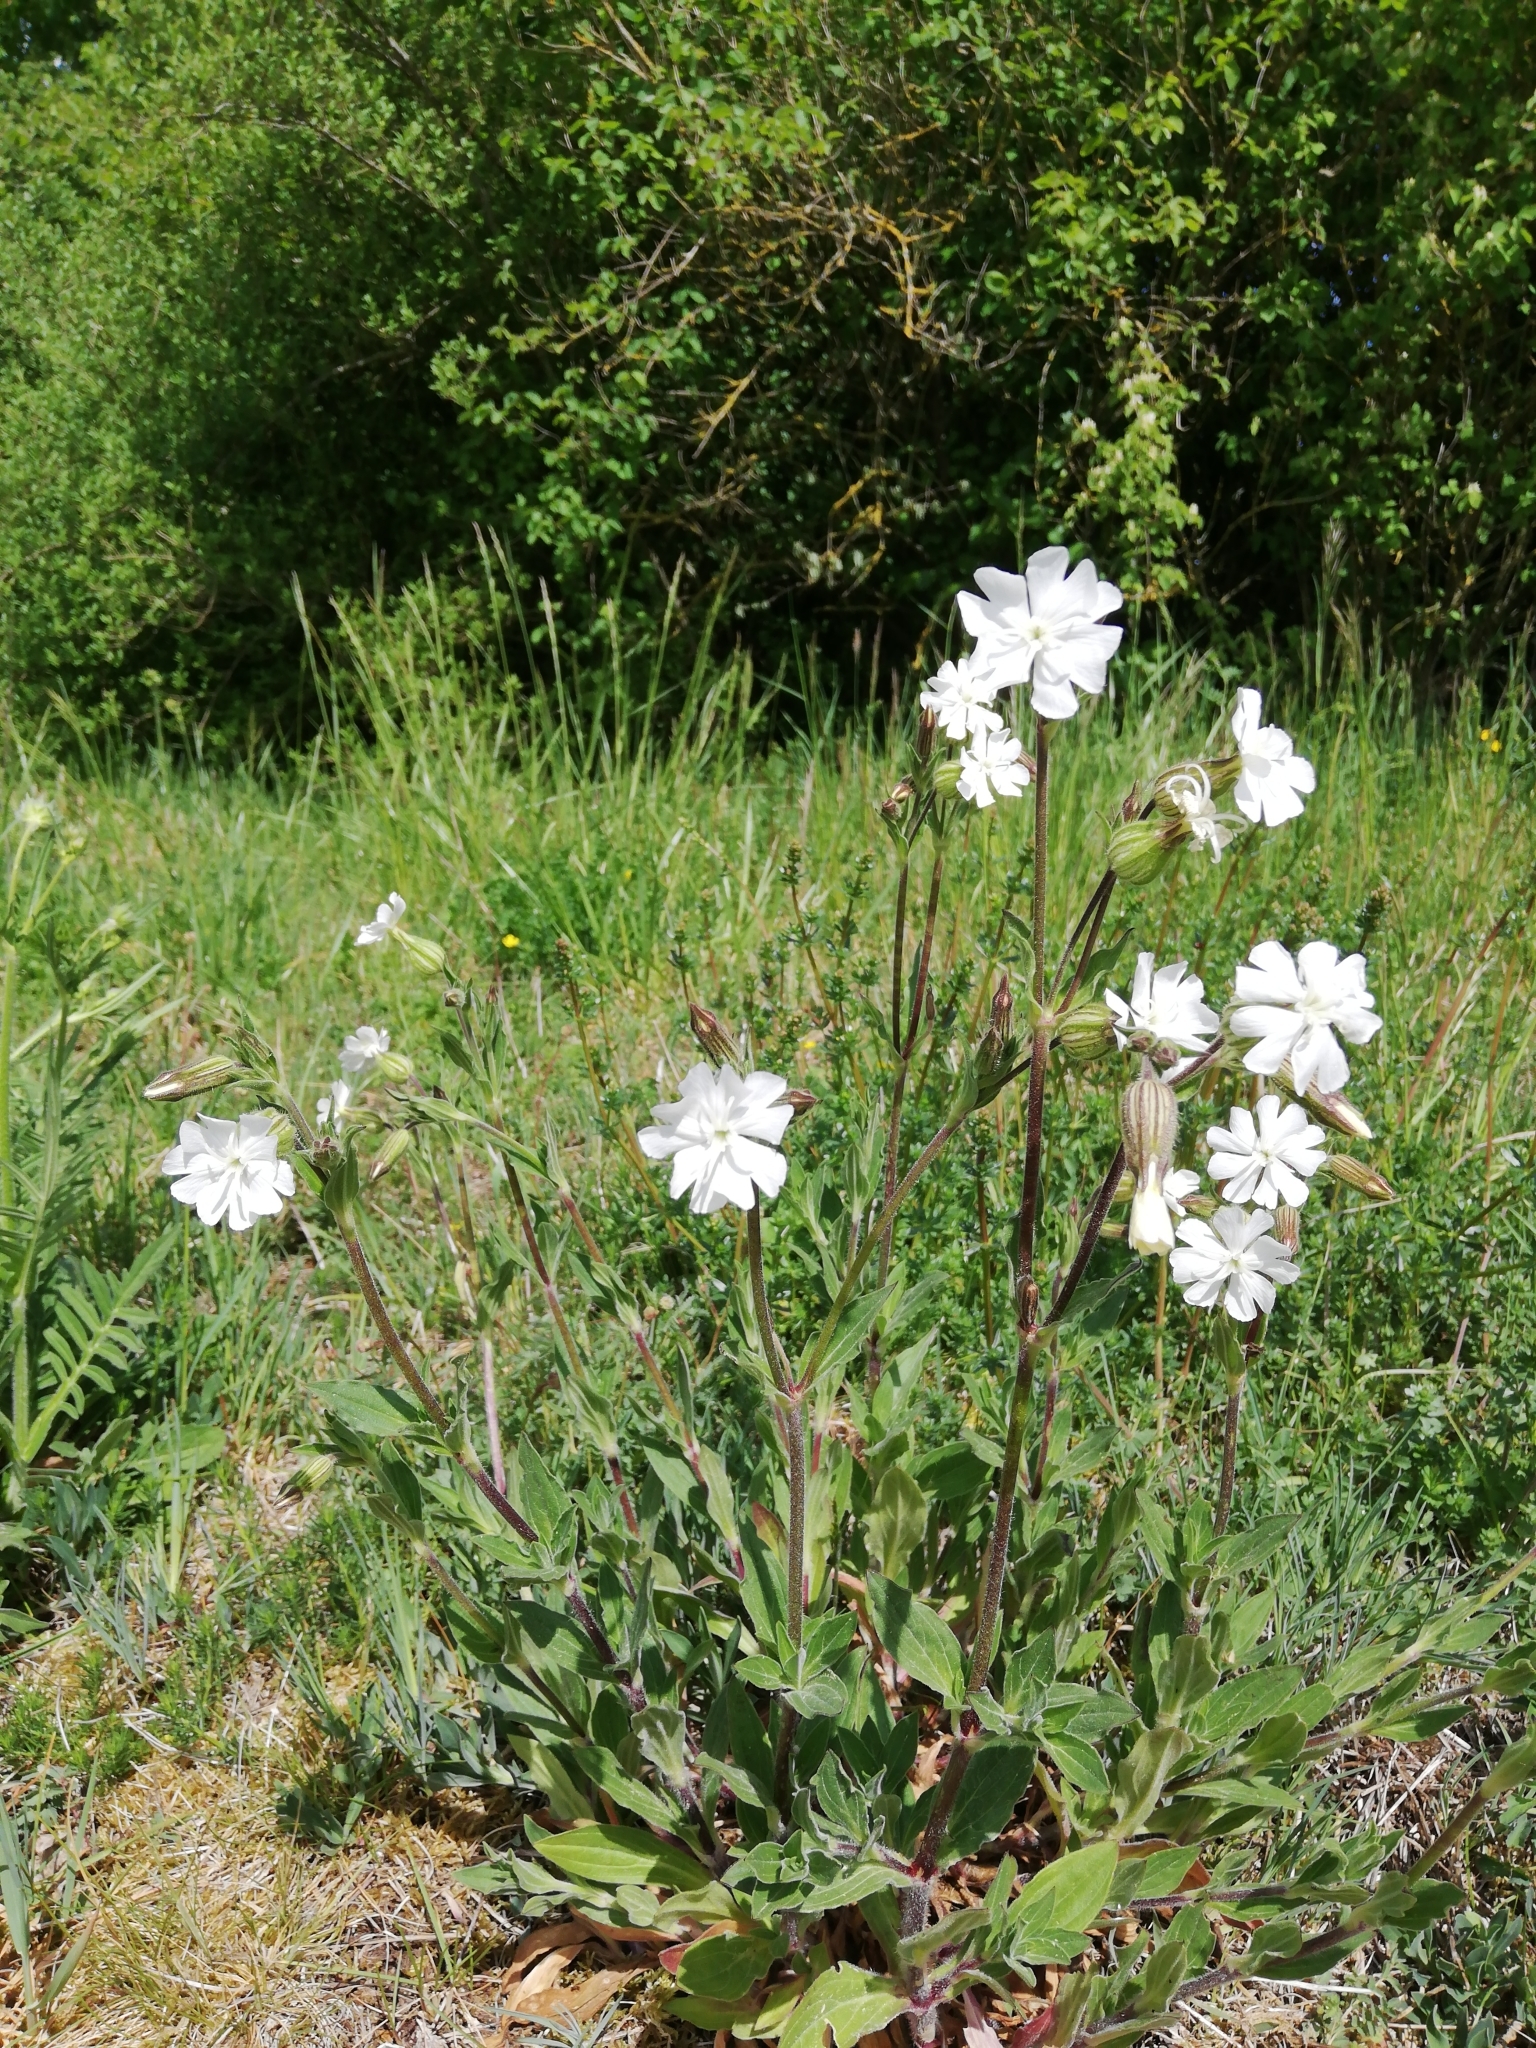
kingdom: Plantae
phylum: Tracheophyta
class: Magnoliopsida
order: Caryophyllales
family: Caryophyllaceae
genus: Silene
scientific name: Silene latifolia
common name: White campion
